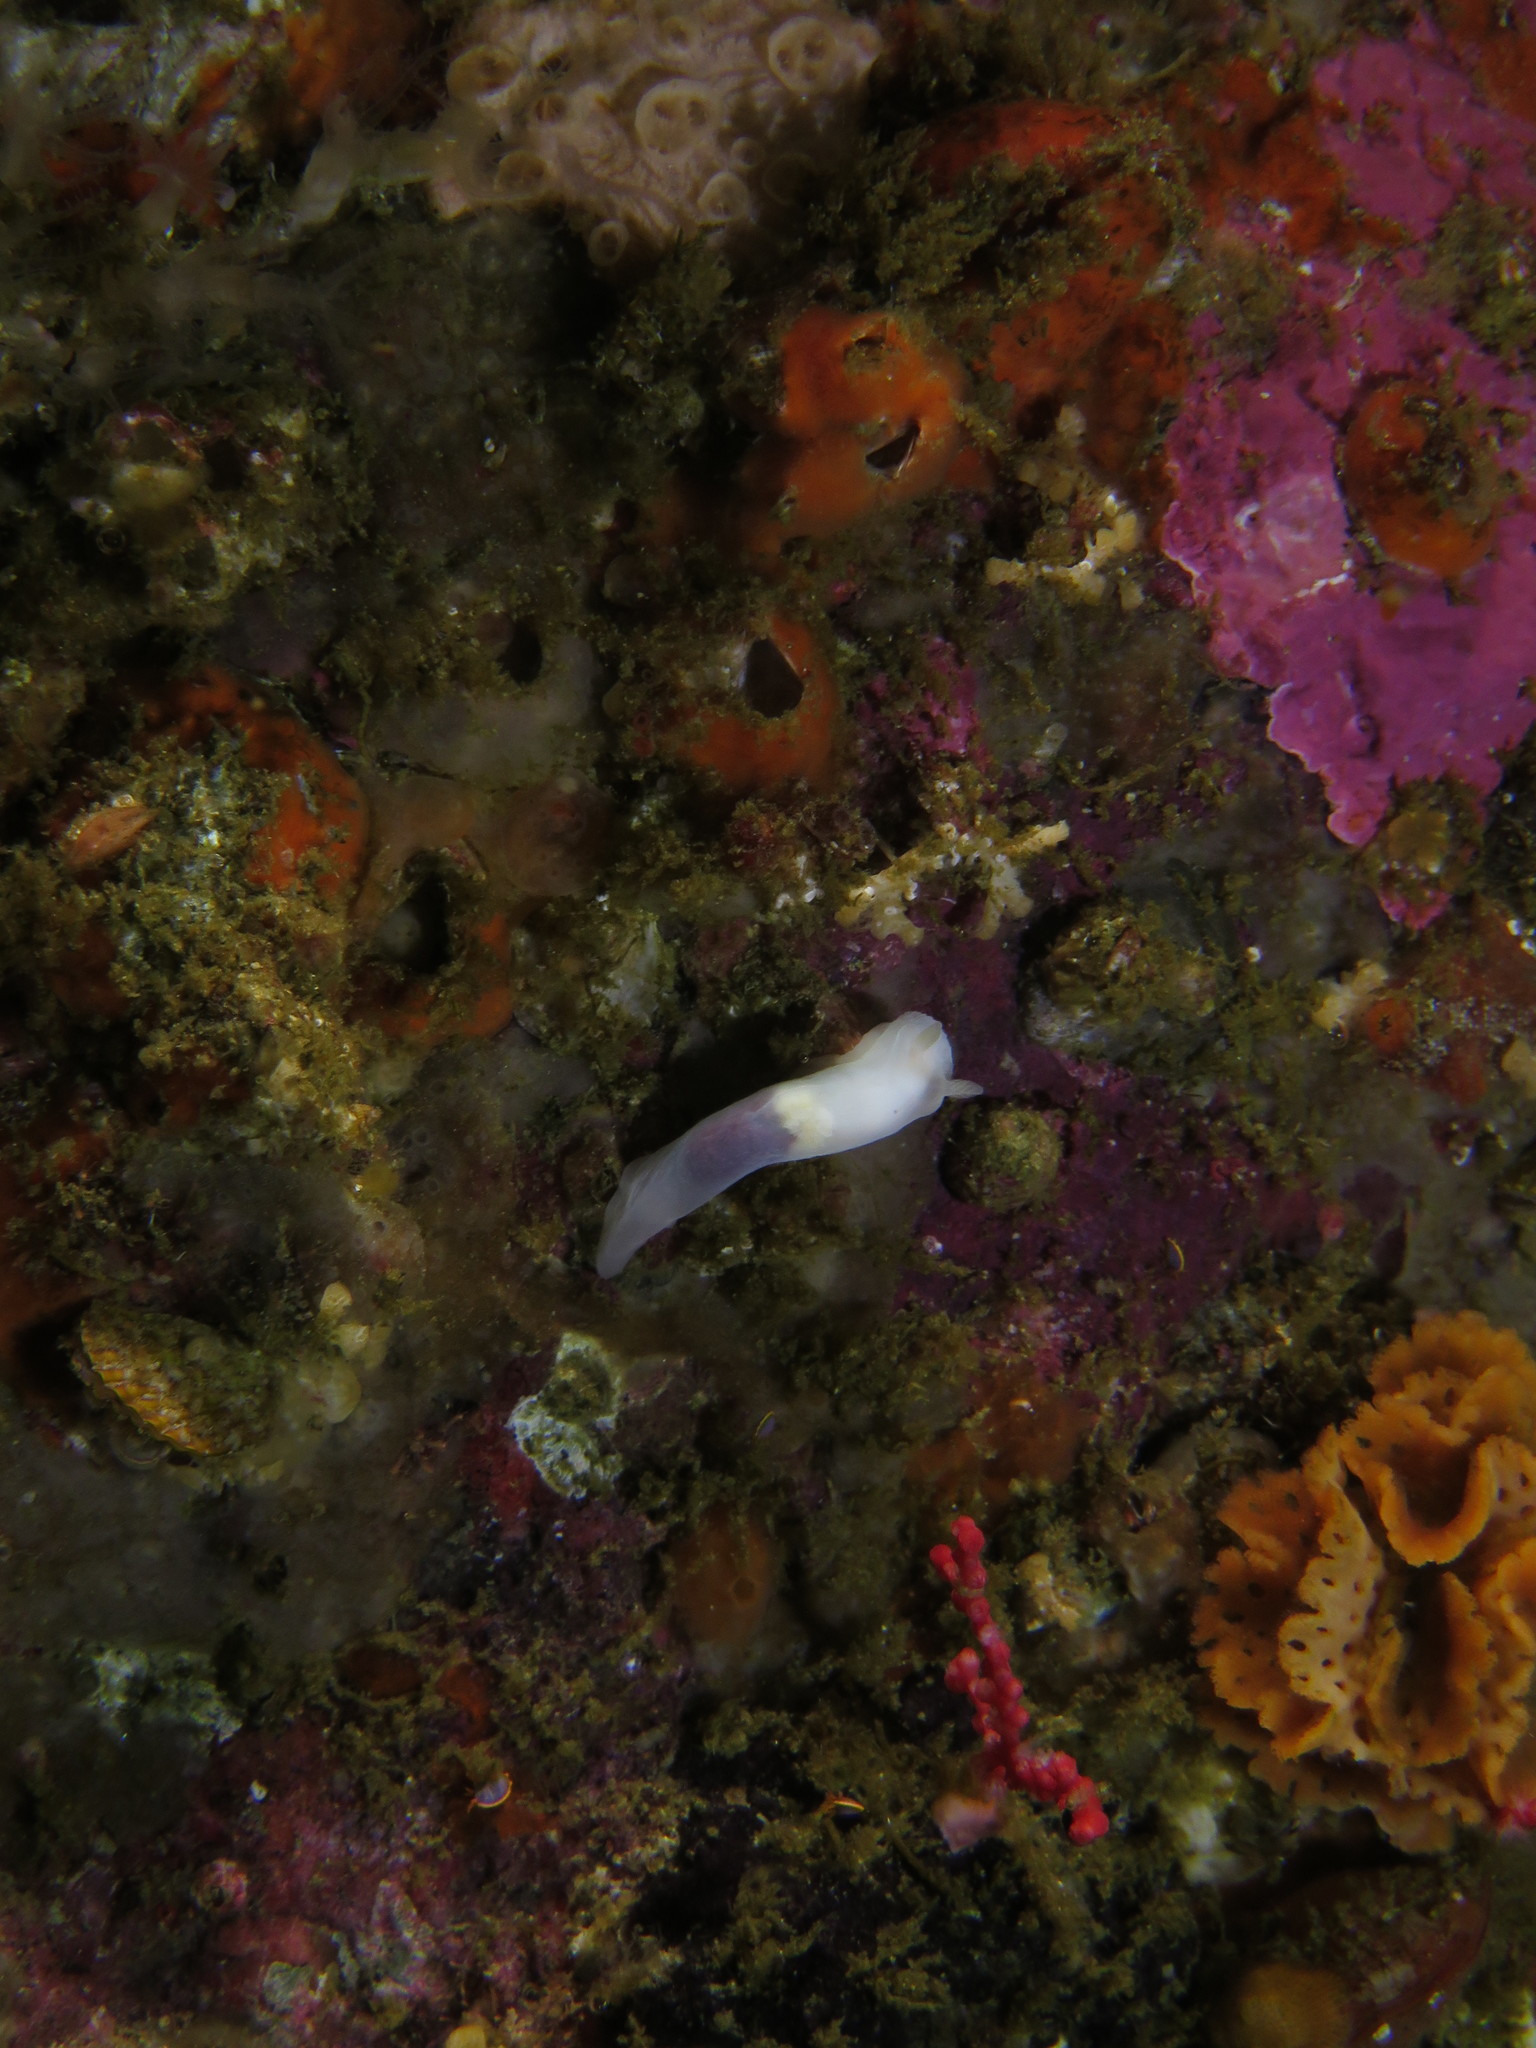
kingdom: Animalia
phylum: Mollusca
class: Gastropoda
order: Nudibranchia
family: Polyceridae
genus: Lecithophorus
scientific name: Lecithophorus capensis
